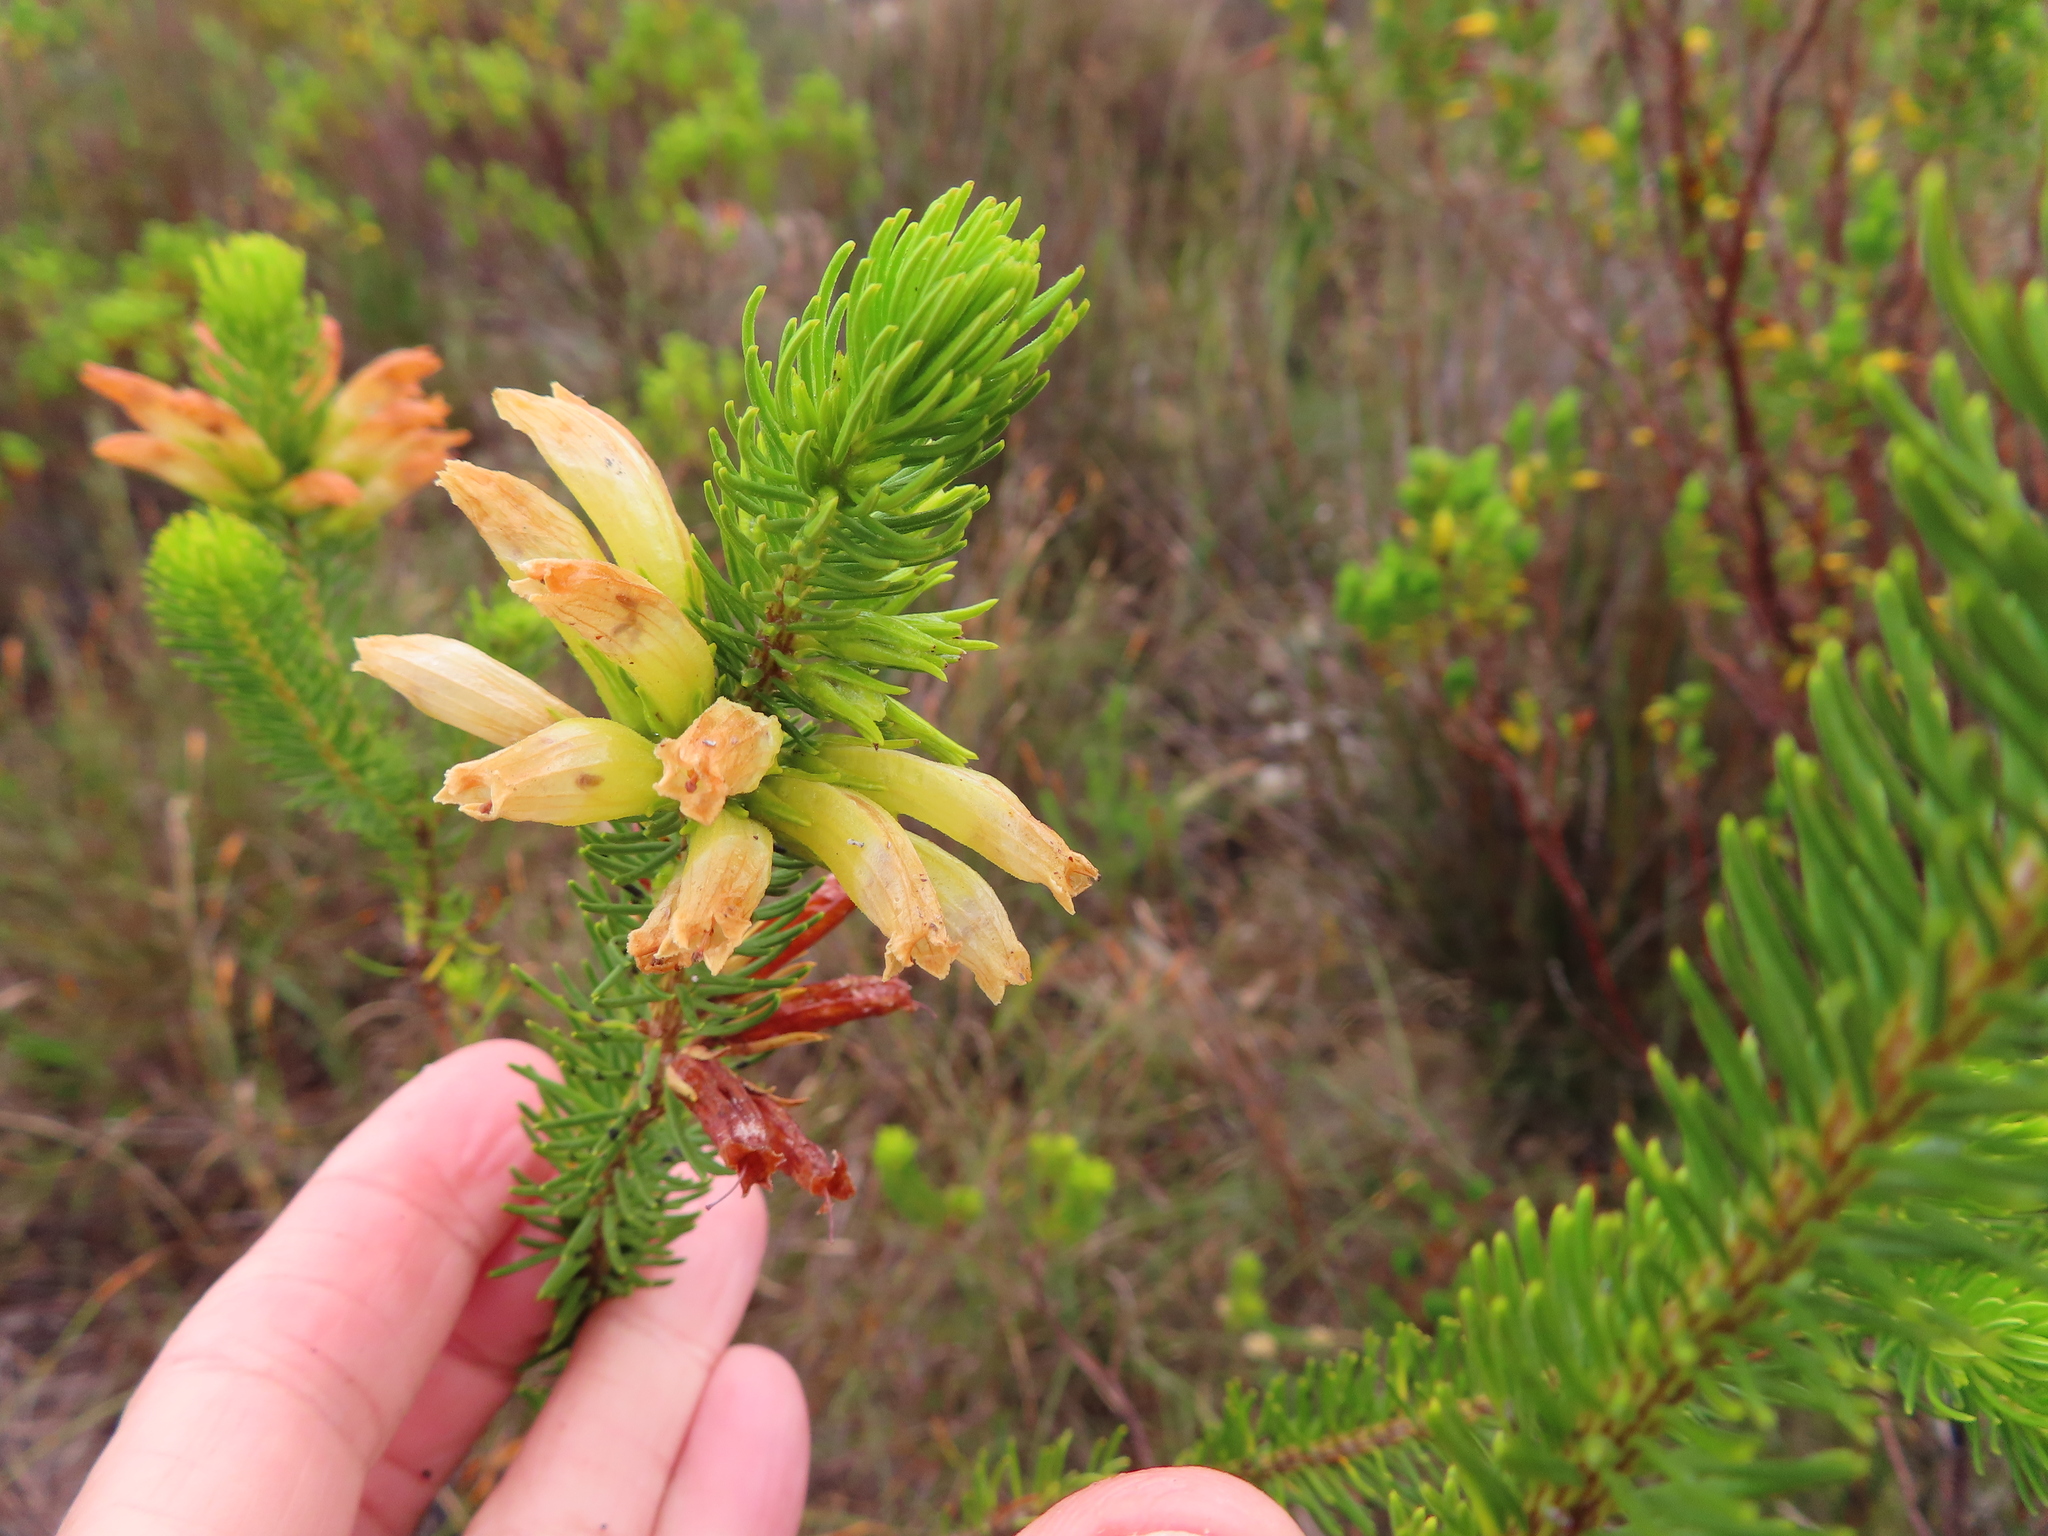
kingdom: Plantae
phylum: Tracheophyta
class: Magnoliopsida
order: Ericales
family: Ericaceae
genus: Erica
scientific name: Erica viscaria
